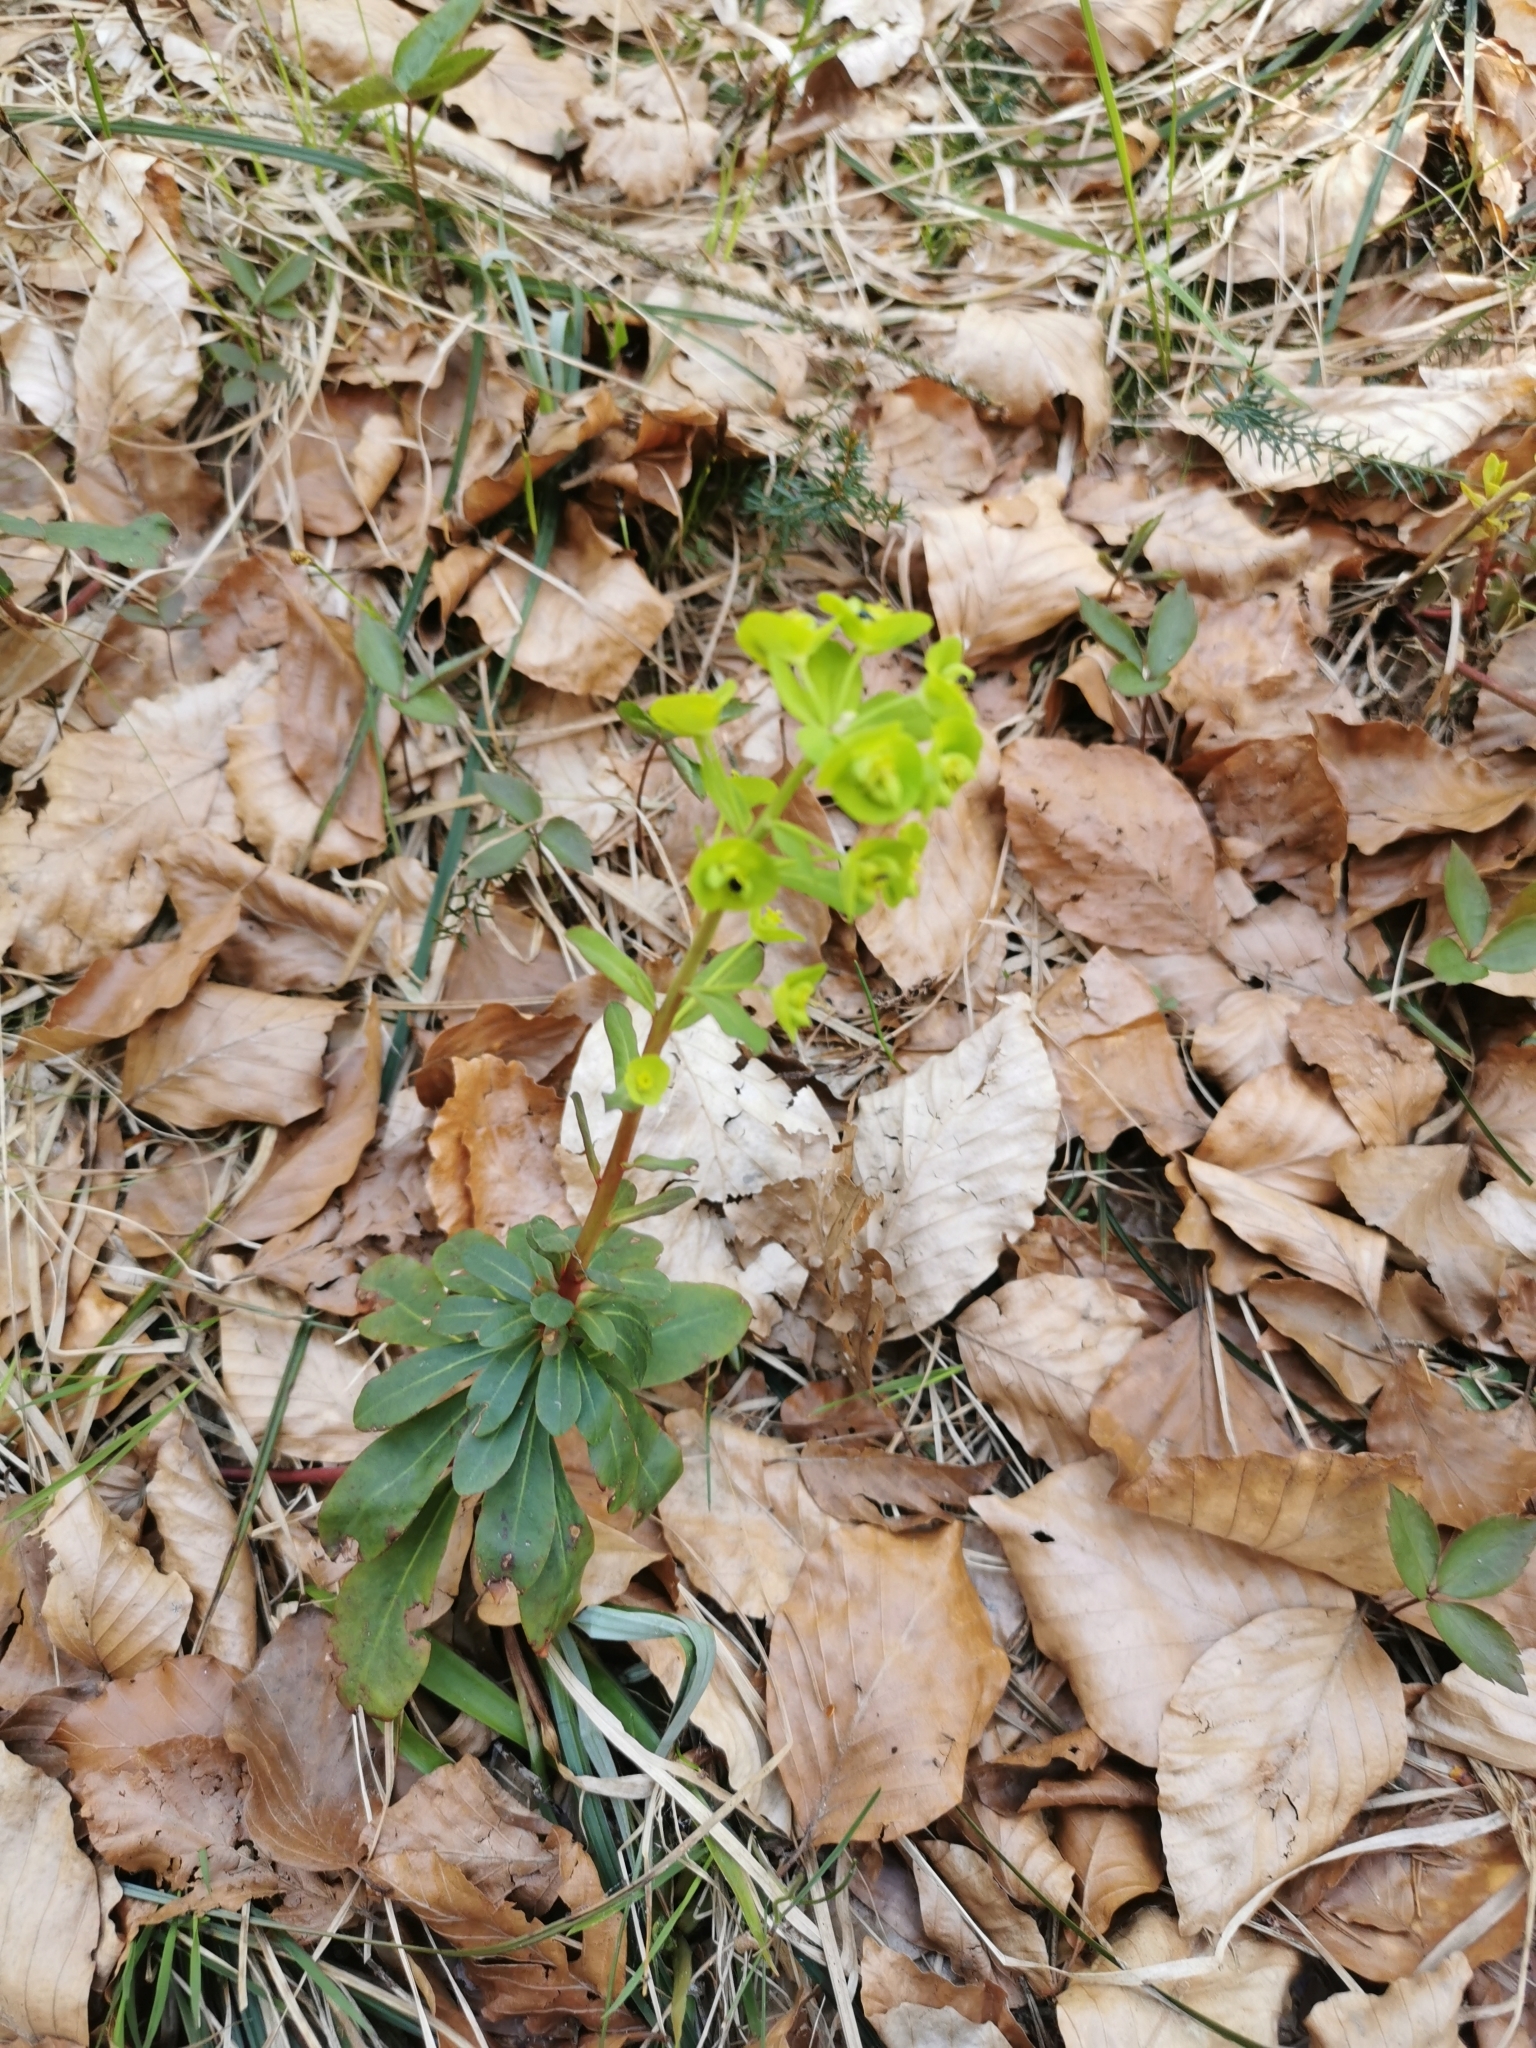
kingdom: Plantae
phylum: Tracheophyta
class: Magnoliopsida
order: Malpighiales
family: Euphorbiaceae
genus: Euphorbia
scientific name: Euphorbia amygdaloides
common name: Wood spurge
